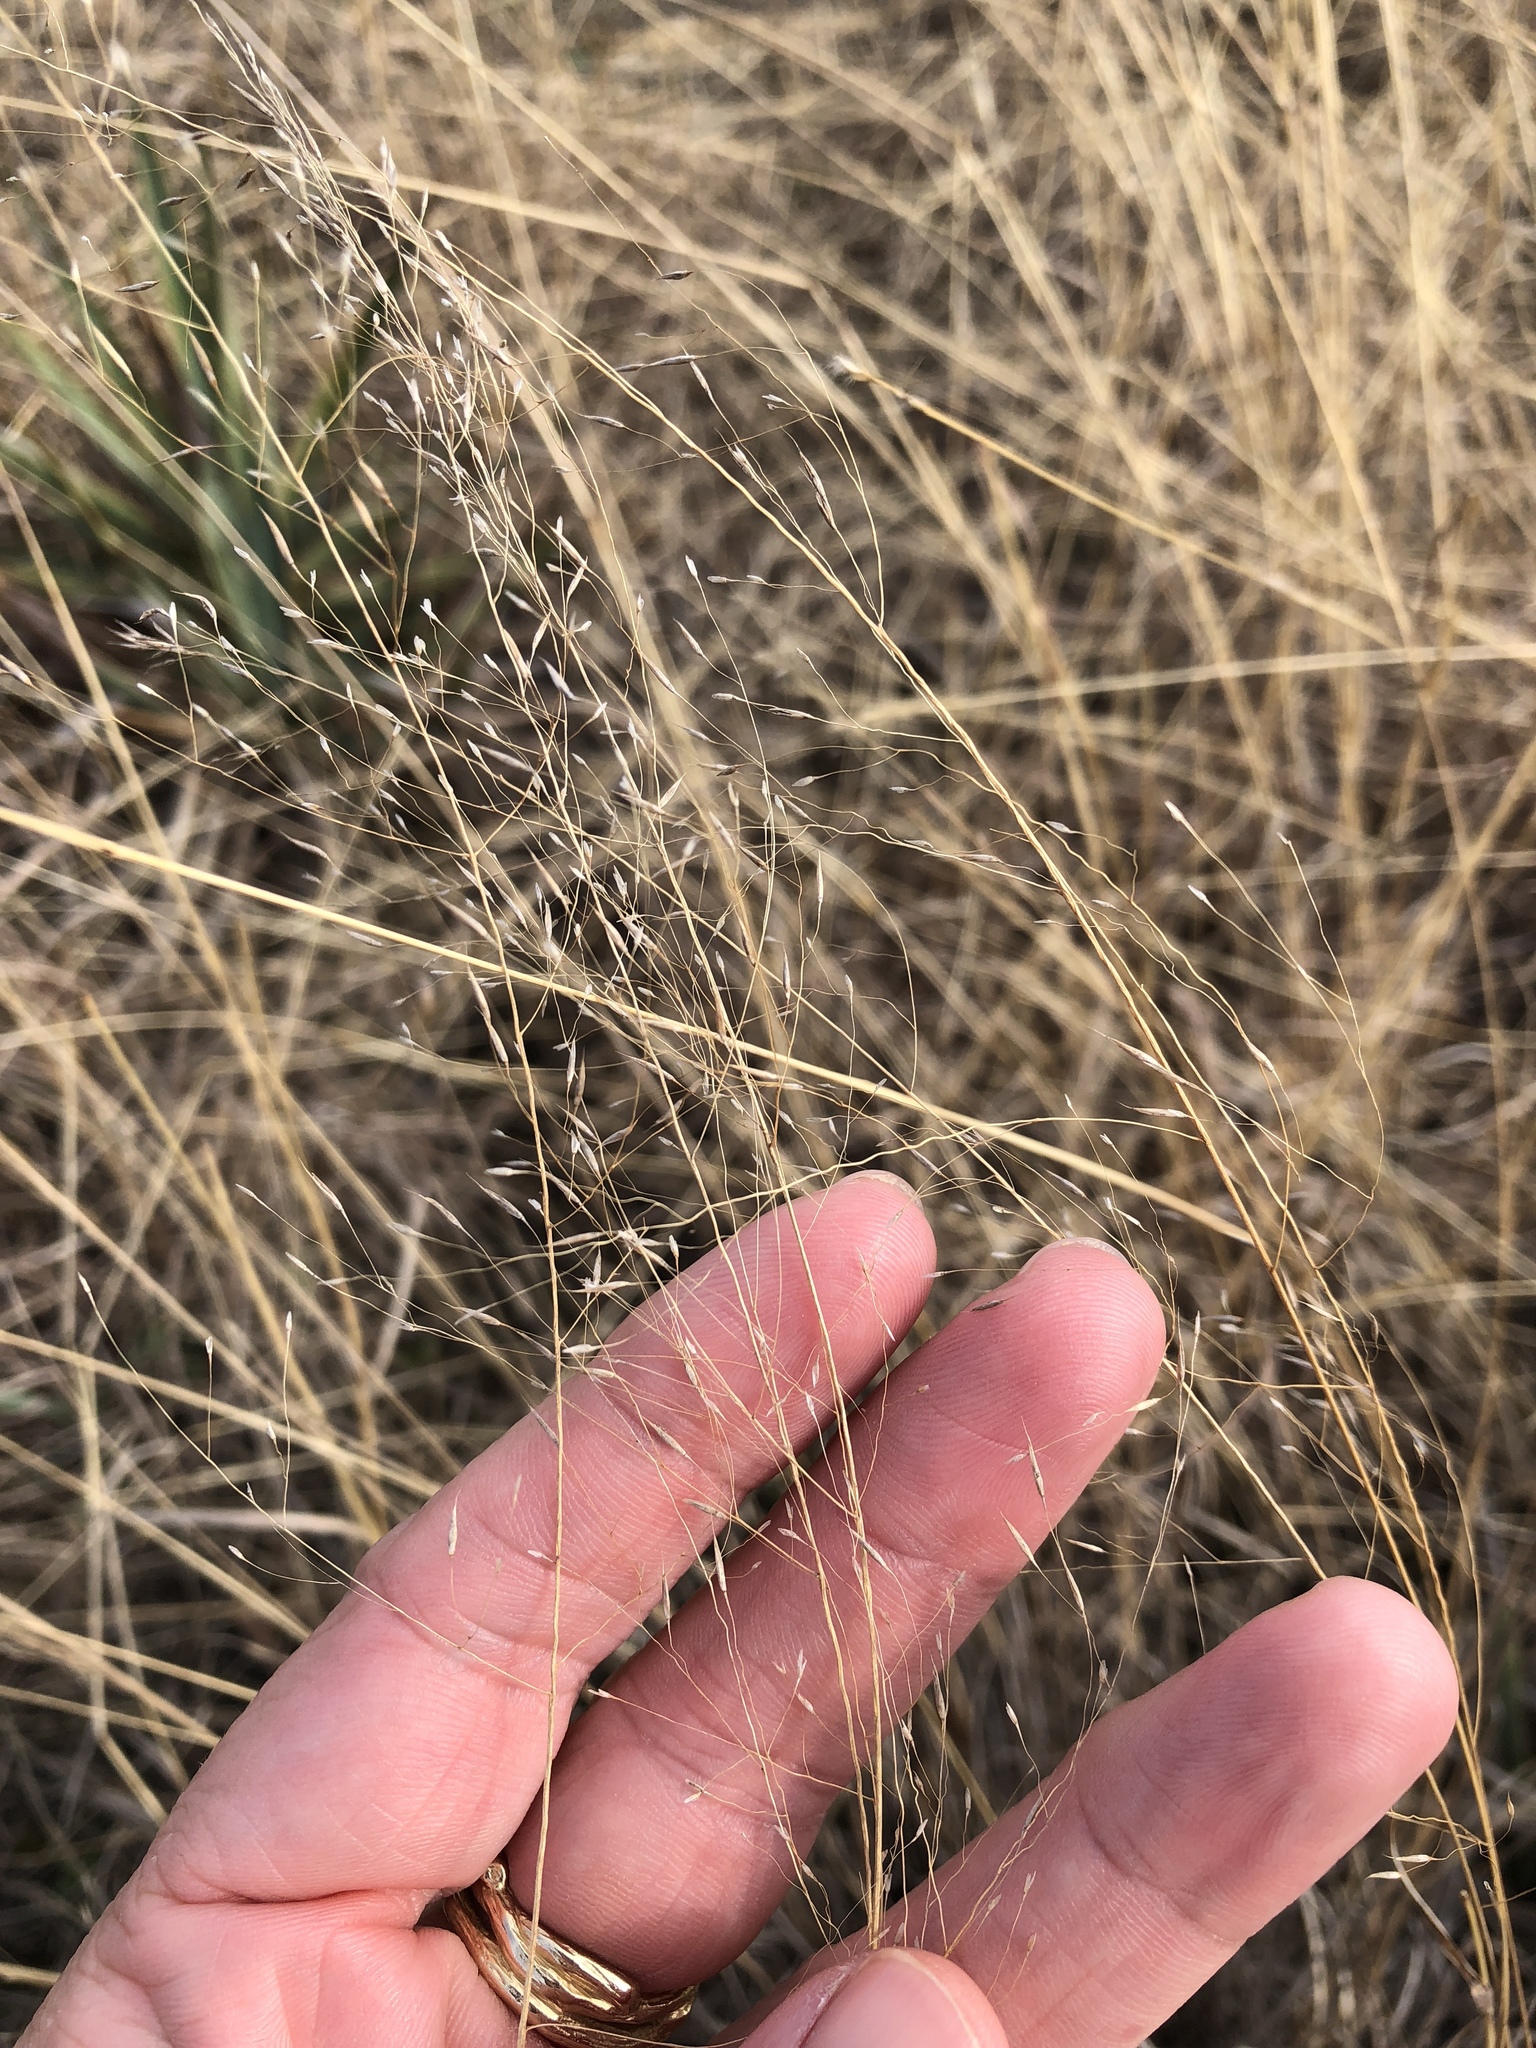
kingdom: Plantae
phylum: Tracheophyta
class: Liliopsida
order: Poales
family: Poaceae
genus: Muhlenbergia
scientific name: Muhlenbergia reverchonii
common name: Seep muhly
